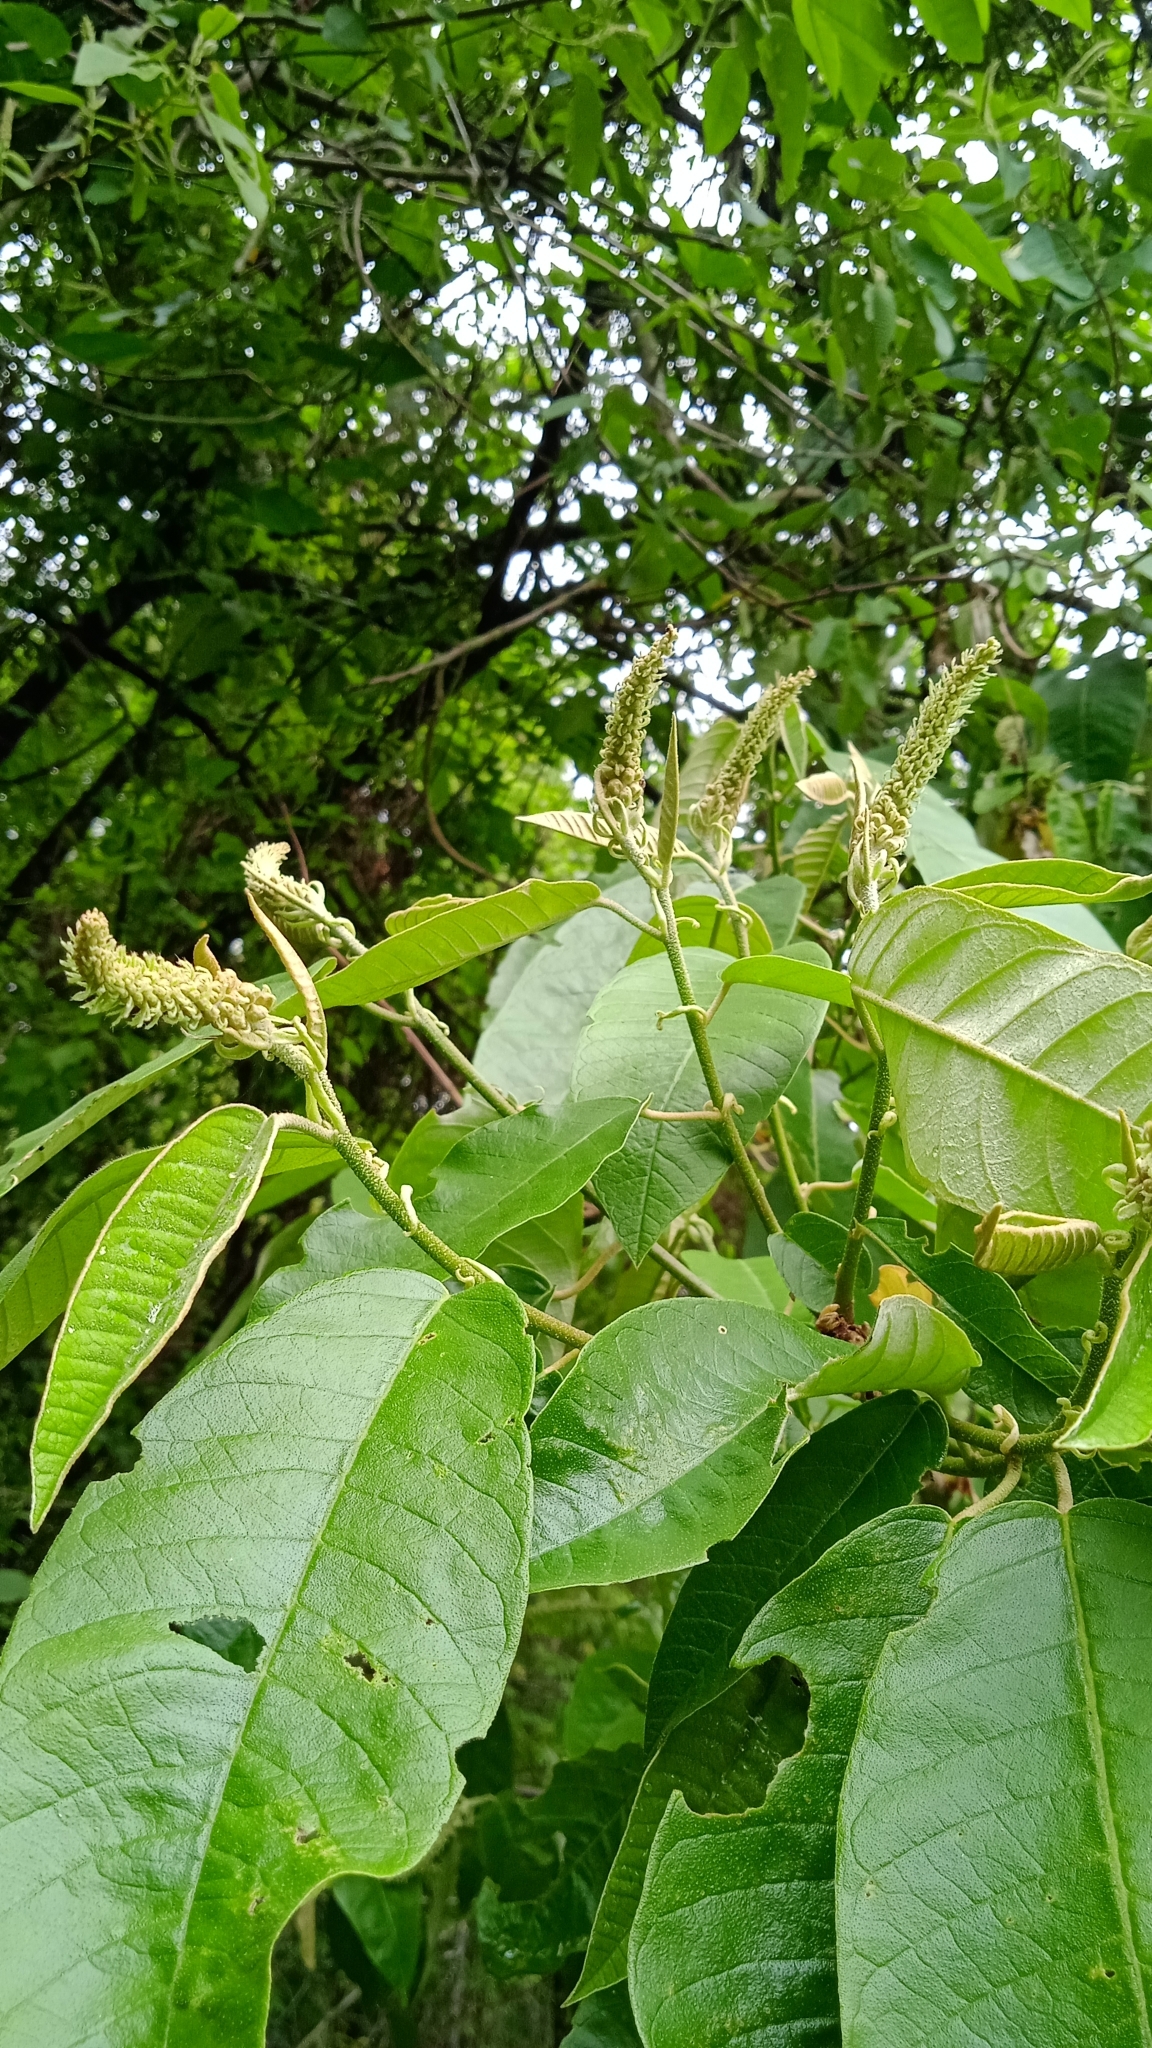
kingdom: Plantae
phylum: Tracheophyta
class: Magnoliopsida
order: Malpighiales
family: Euphorbiaceae
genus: Croton
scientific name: Croton floribundus
